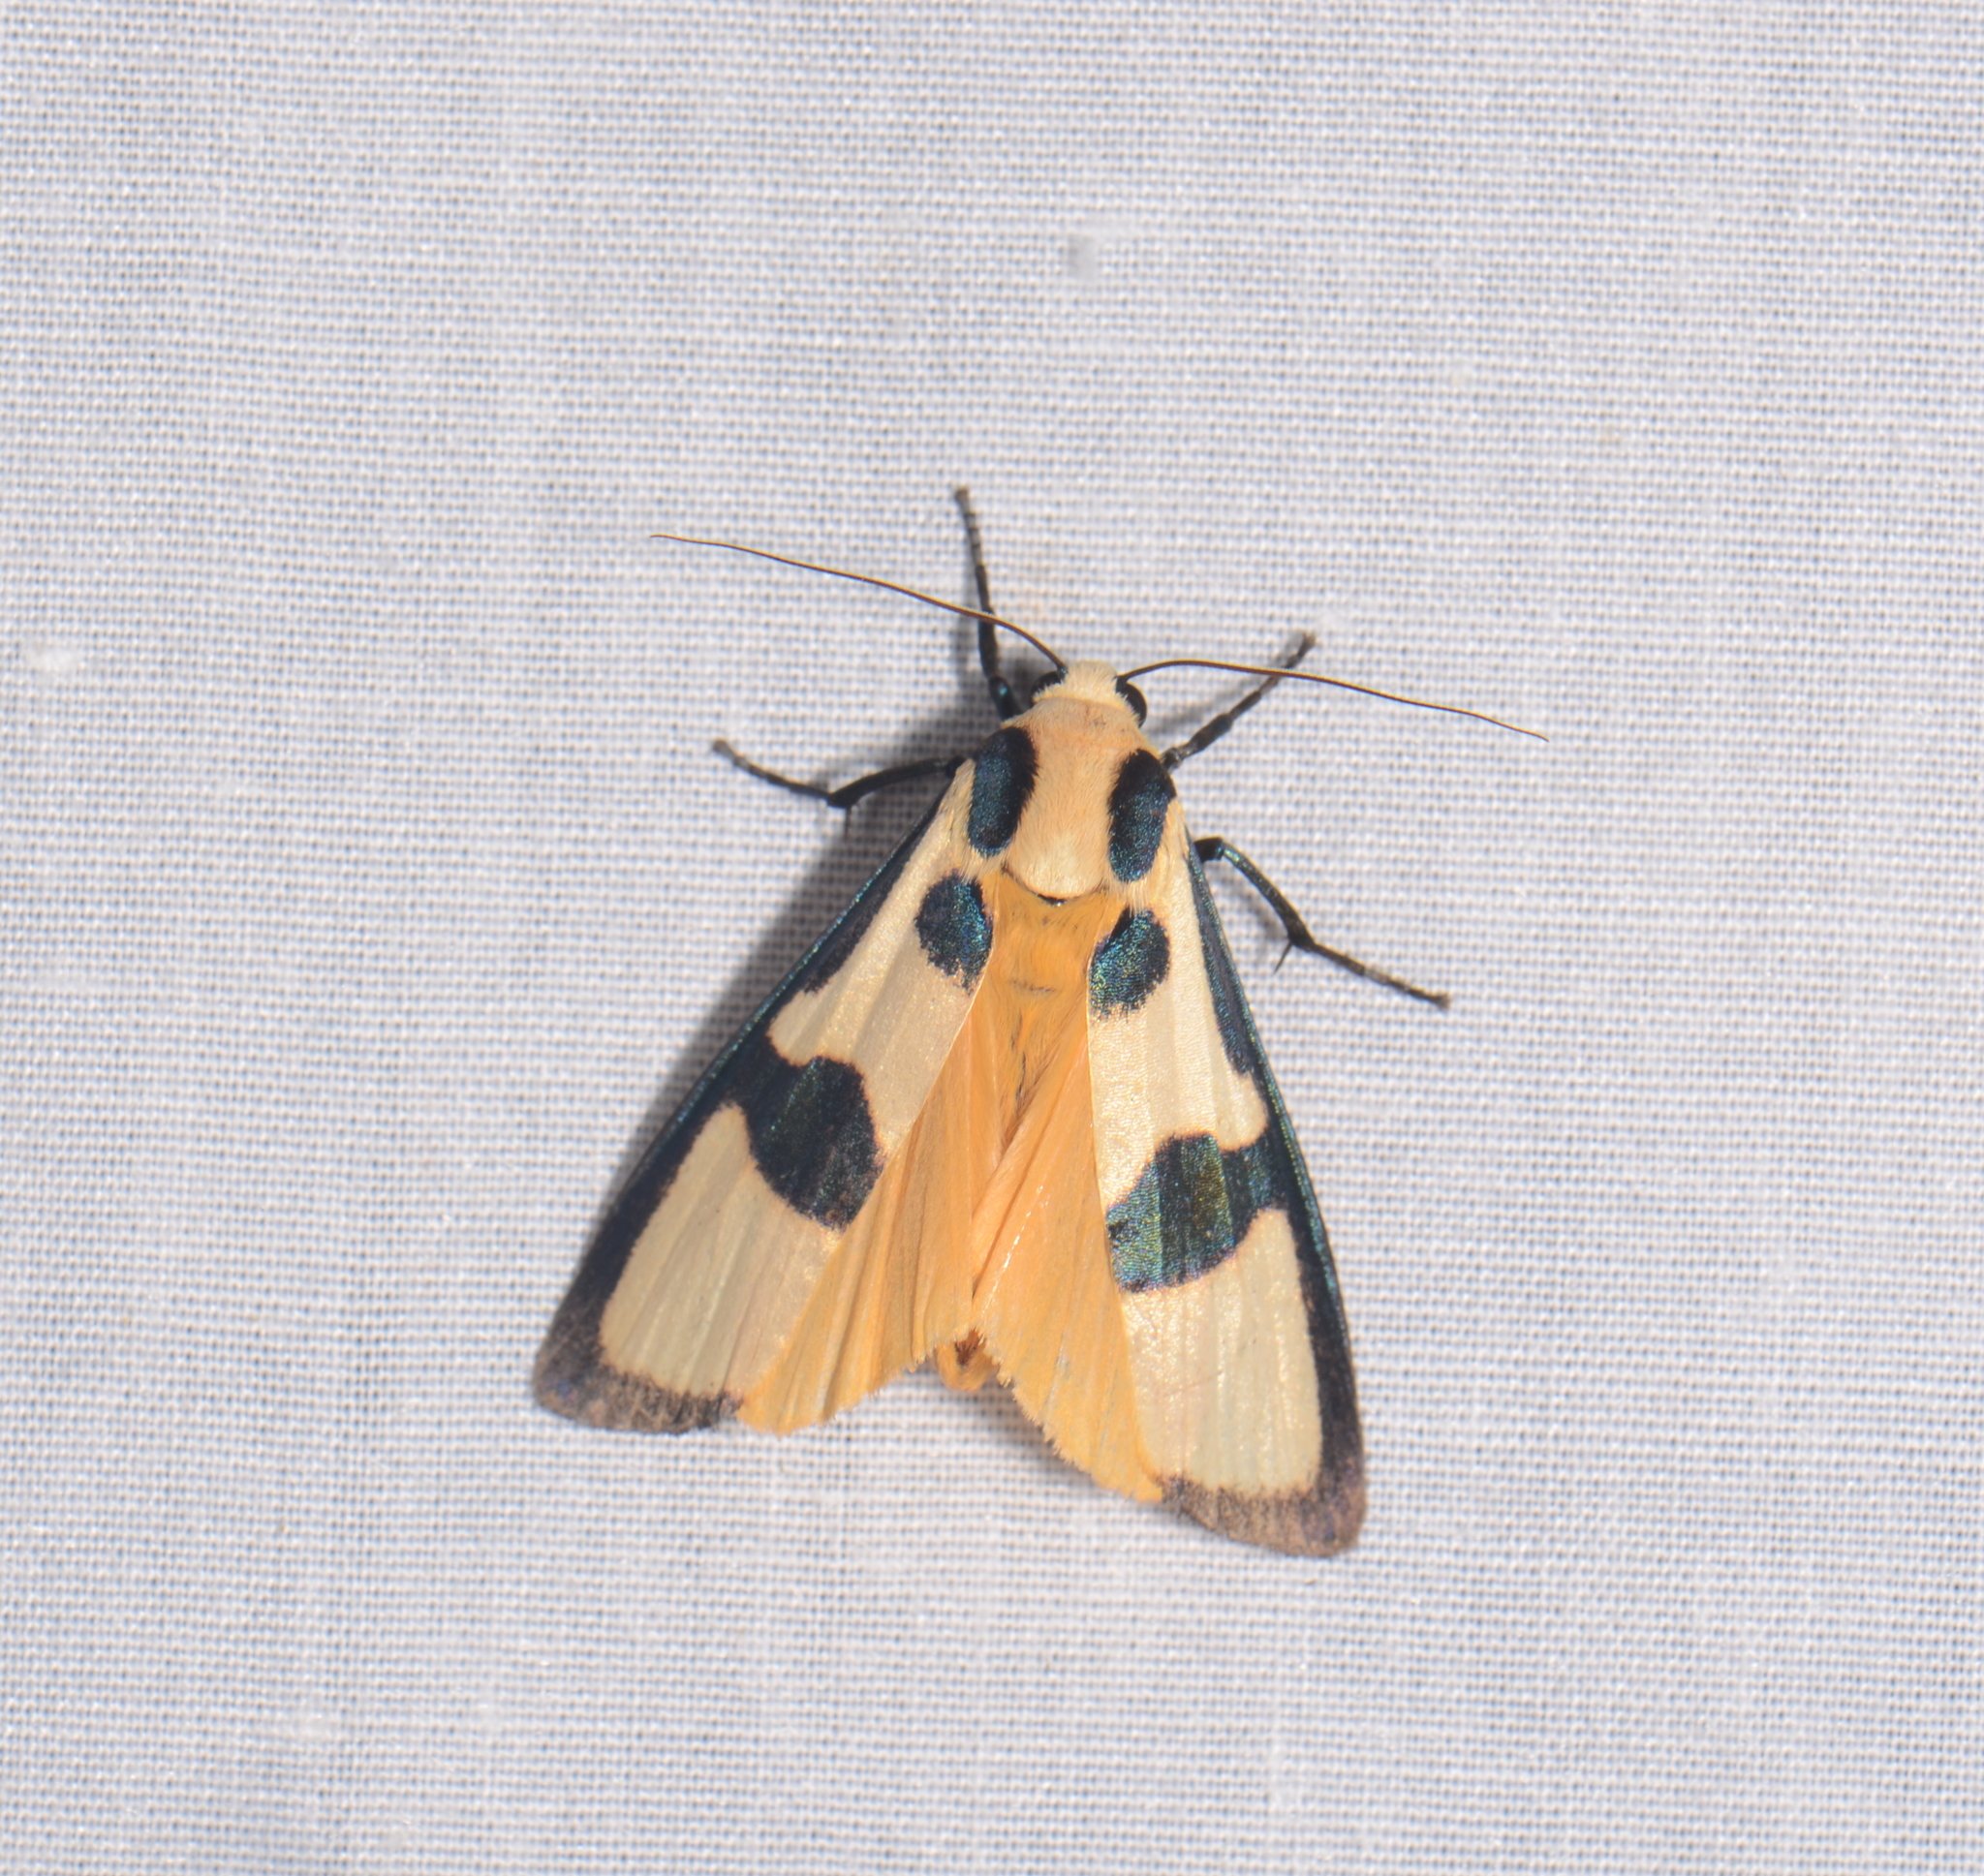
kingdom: Animalia
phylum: Arthropoda
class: Insecta
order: Lepidoptera
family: Erebidae
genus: Chrysaeglia
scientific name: Chrysaeglia magnifica
